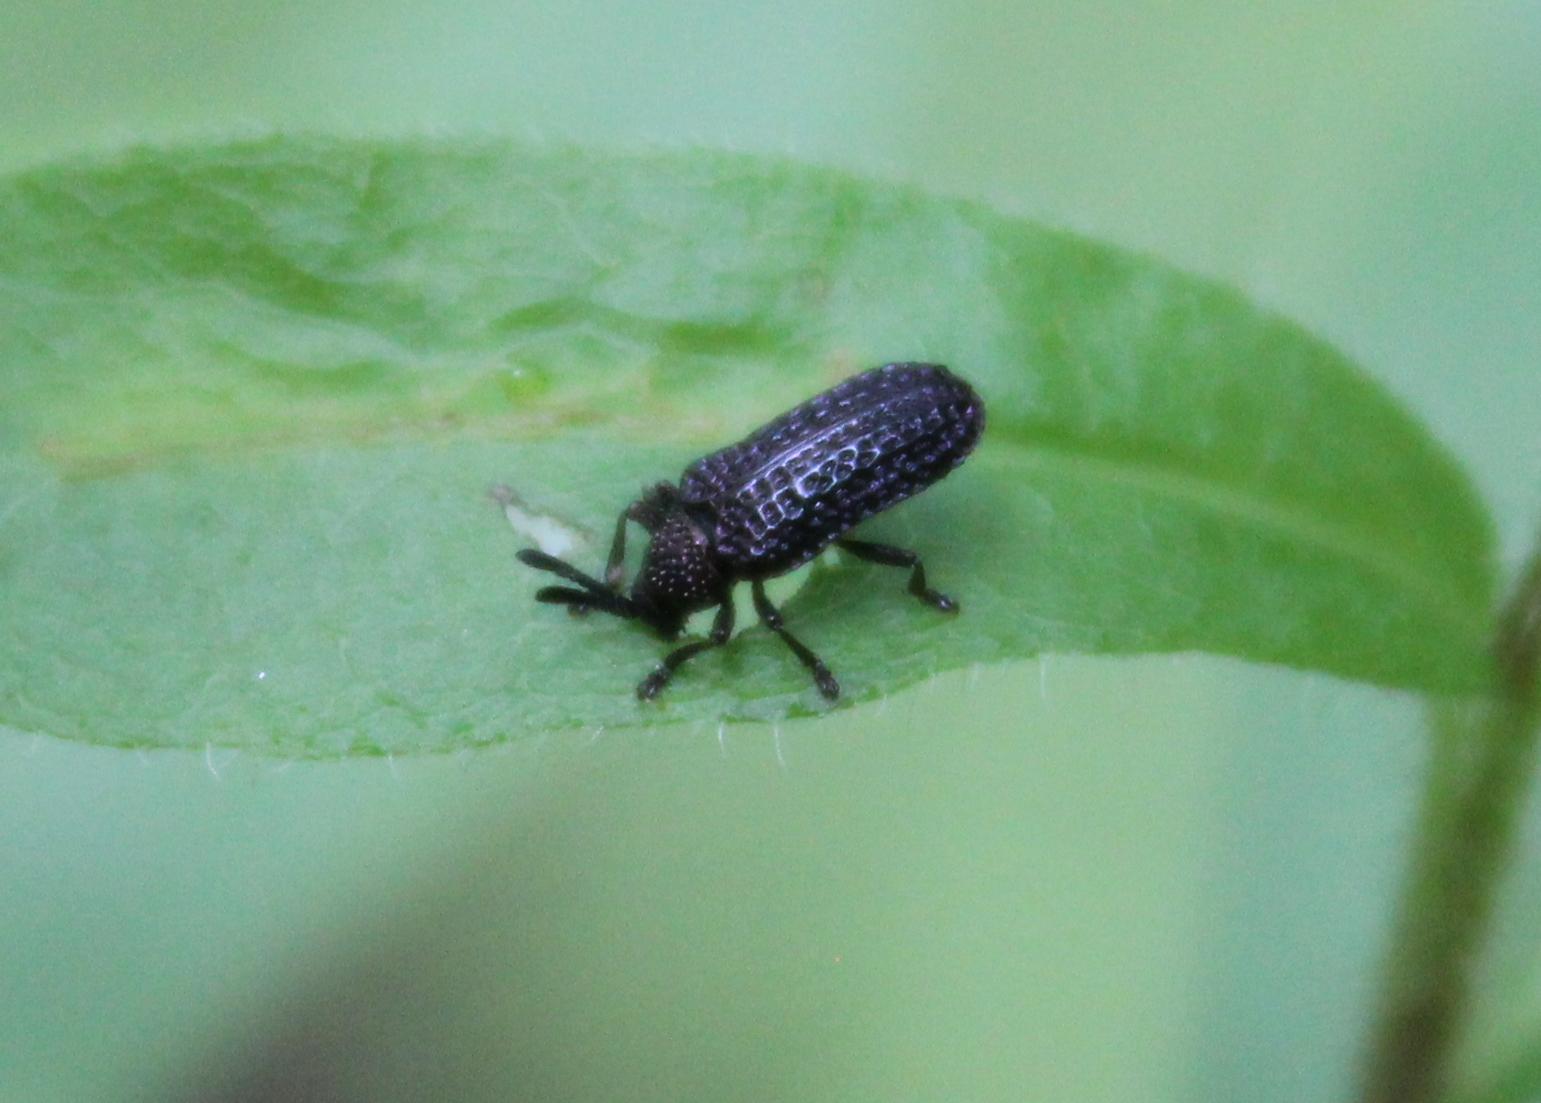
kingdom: Animalia
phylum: Arthropoda
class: Insecta
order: Coleoptera
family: Chrysomelidae
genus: Microrhopala
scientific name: Microrhopala excavata
